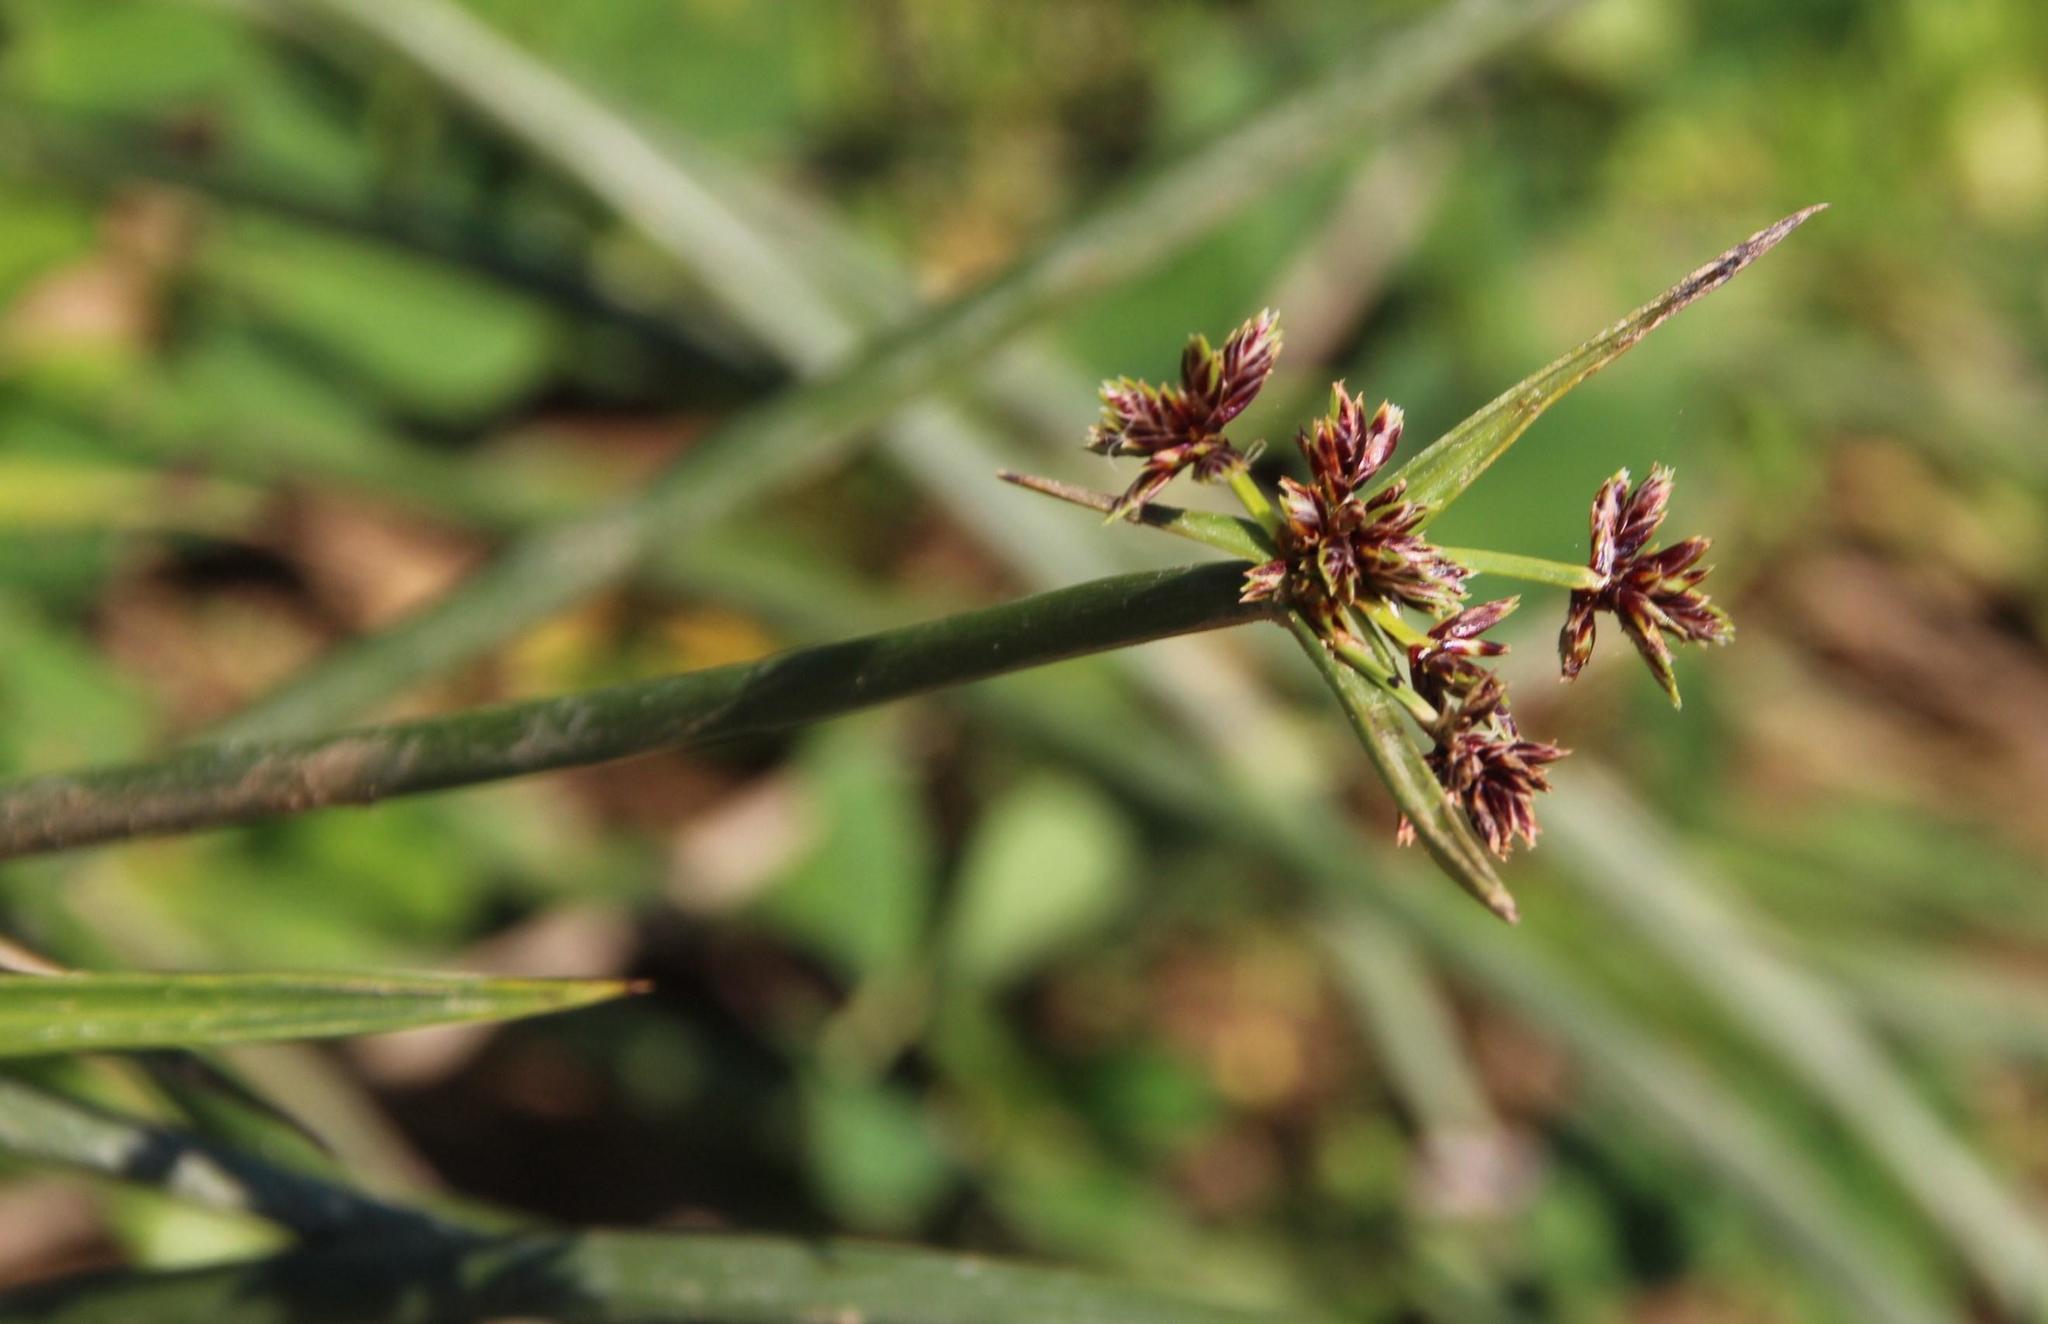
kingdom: Plantae
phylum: Tracheophyta
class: Liliopsida
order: Poales
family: Cyperaceae
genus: Cyperus
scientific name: Cyperus longus
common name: Galingale
